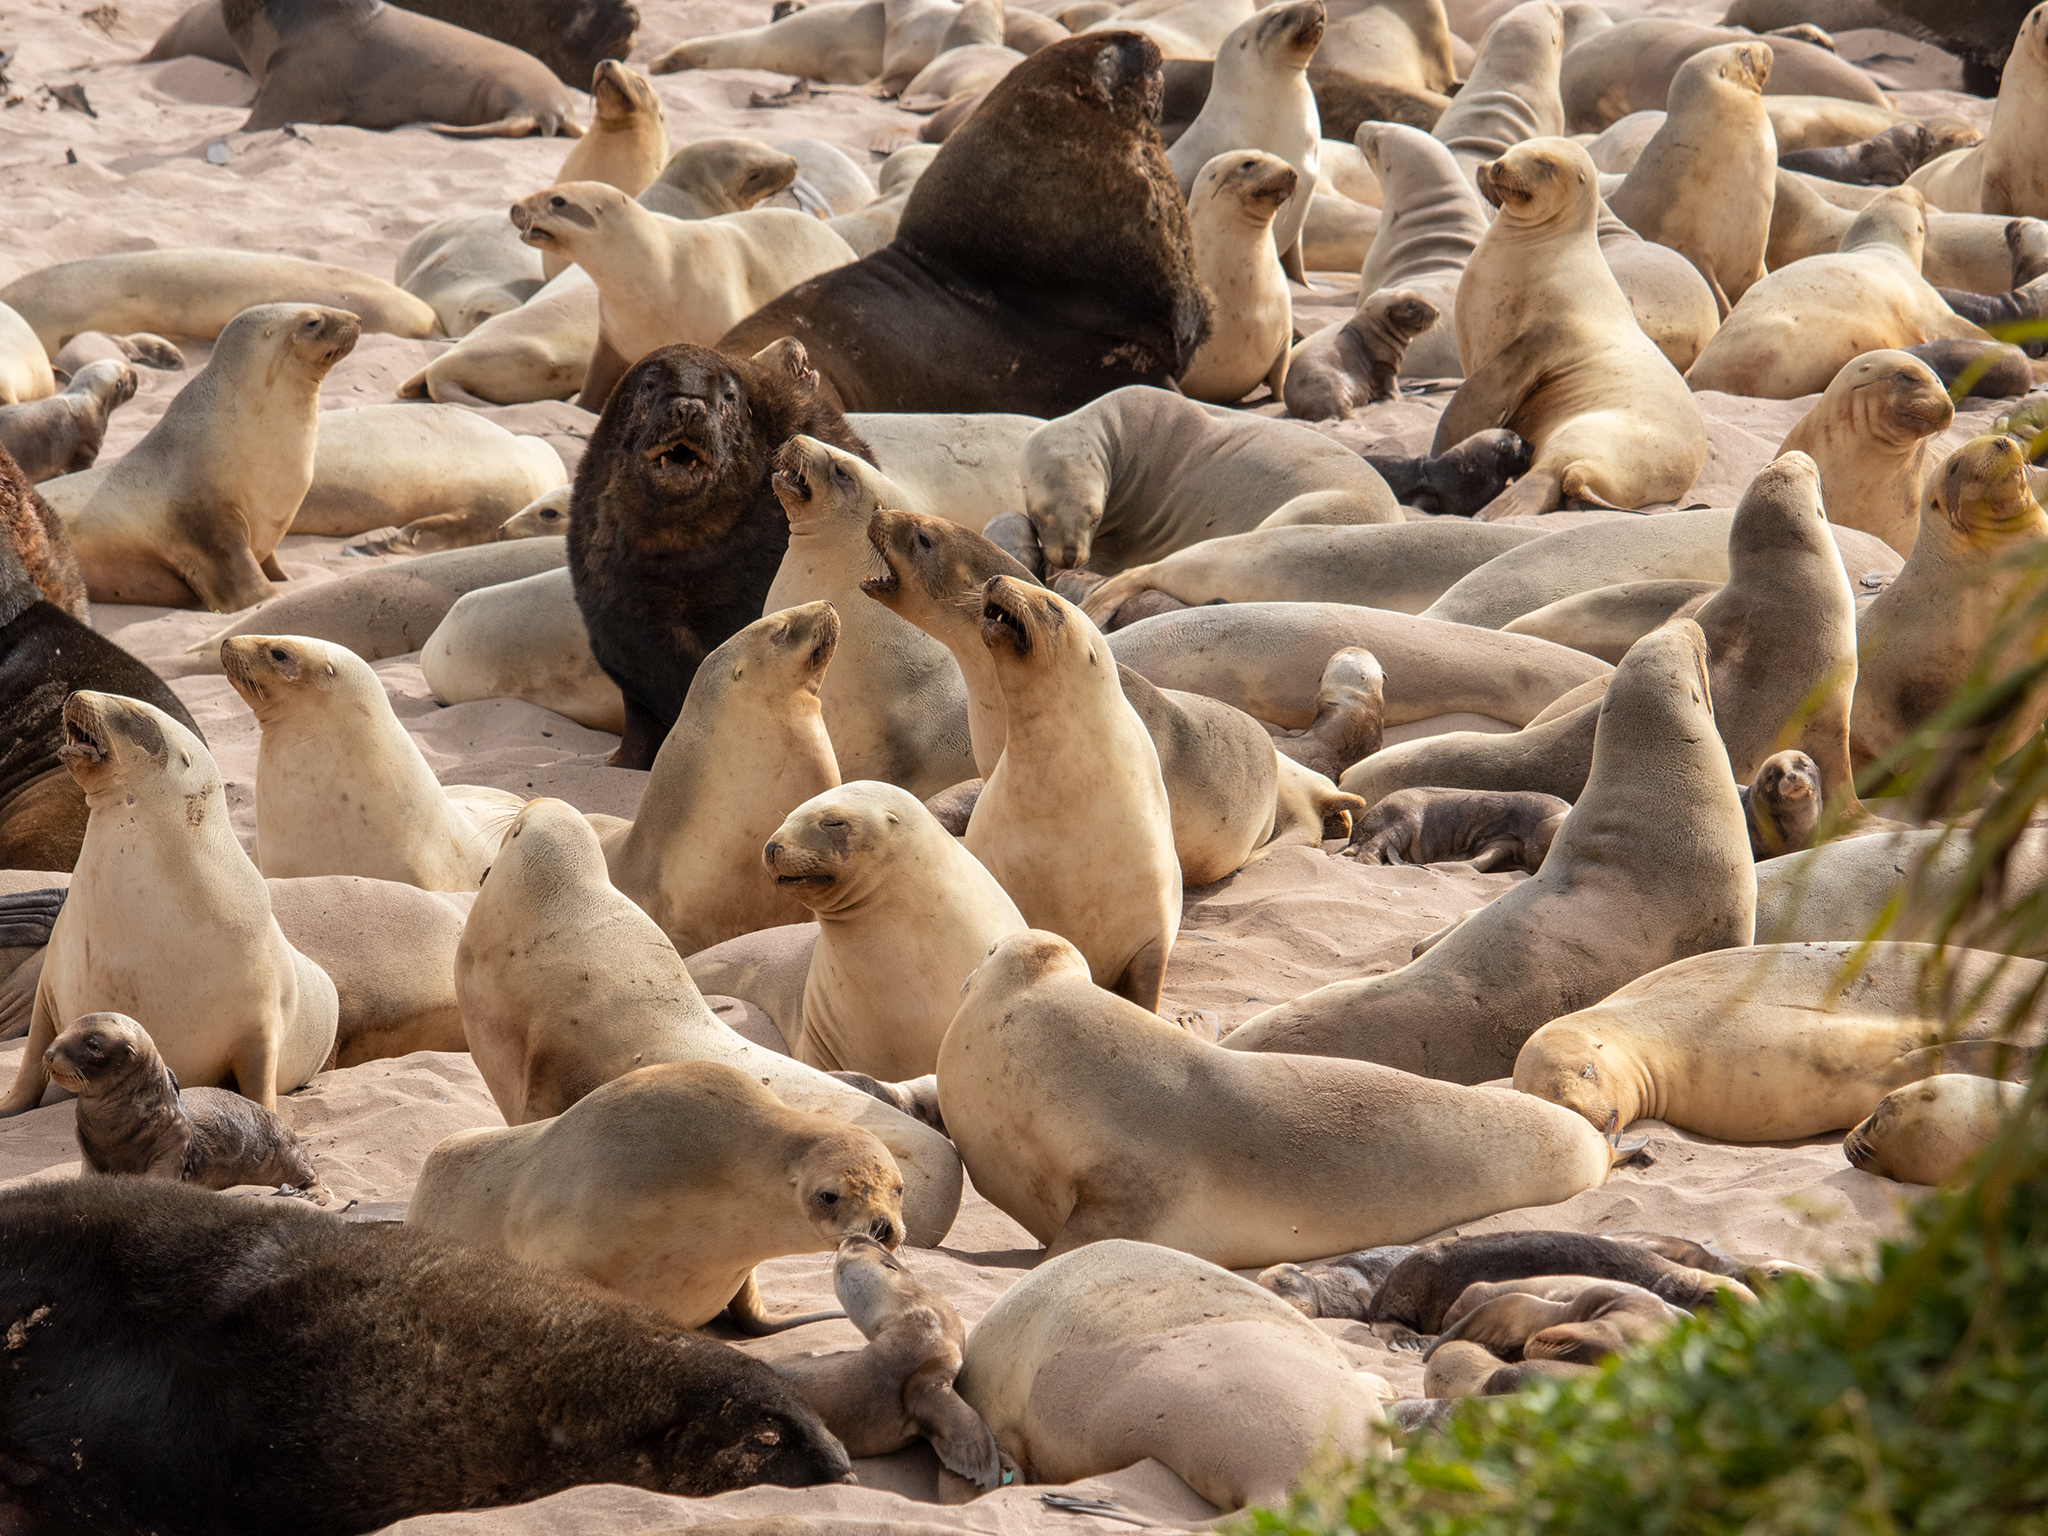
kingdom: Animalia
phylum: Chordata
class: Mammalia
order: Carnivora
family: Otariidae
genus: Phocarctos
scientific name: Phocarctos hookeri
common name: New zealand sea lion
